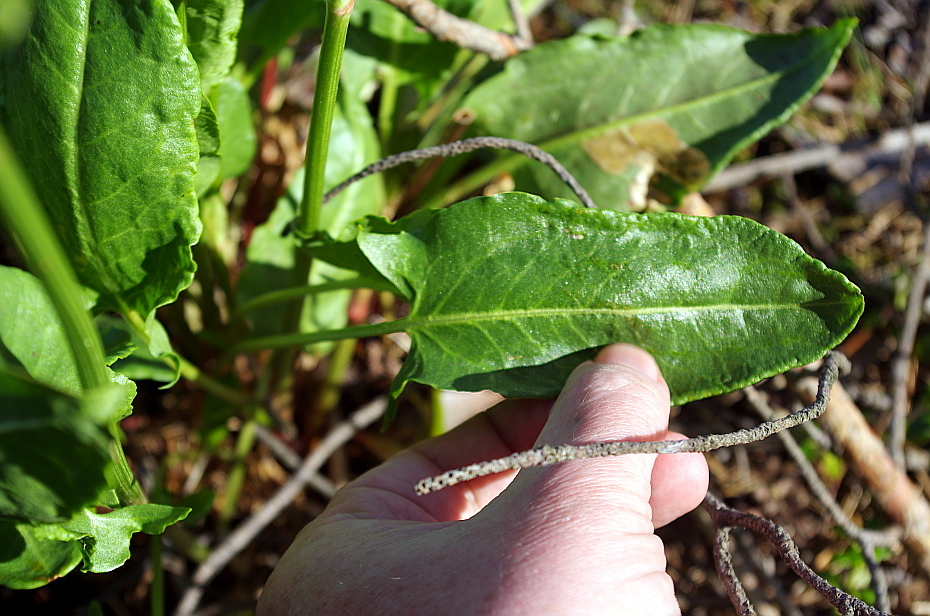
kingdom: Plantae
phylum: Tracheophyta
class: Magnoliopsida
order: Caryophyllales
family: Polygonaceae
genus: Rumex
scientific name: Rumex acetosa
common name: Garden sorrel
